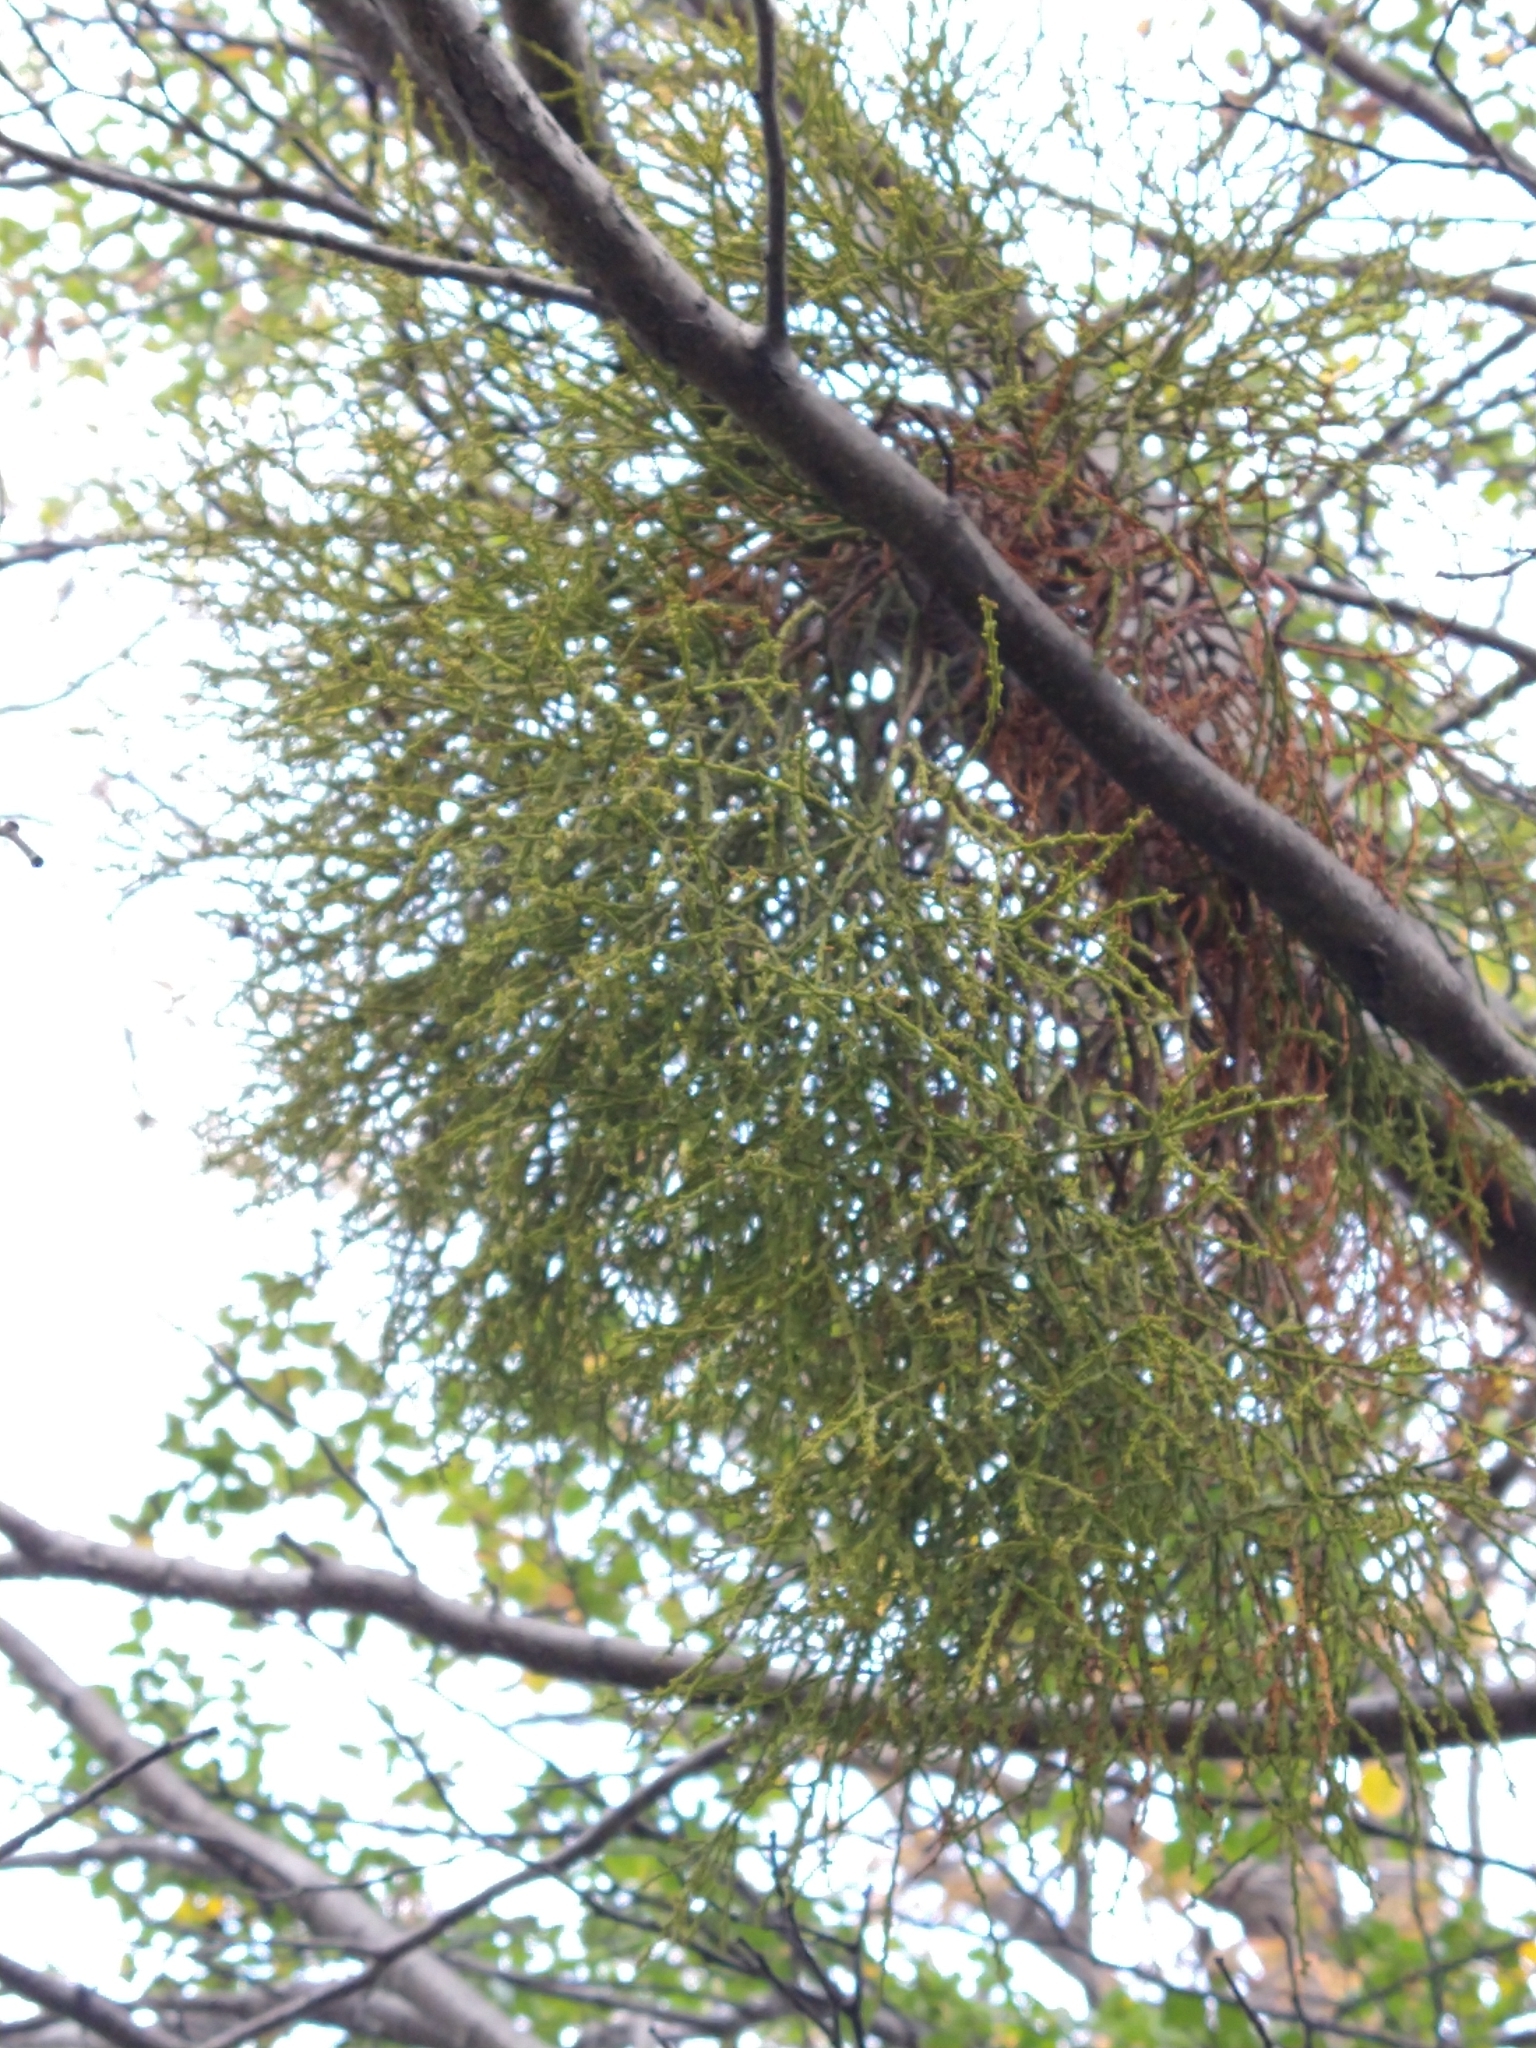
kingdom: Plantae
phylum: Tracheophyta
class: Magnoliopsida
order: Santalales
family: Misodendraceae
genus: Misodendrum
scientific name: Misodendrum punctulatum
